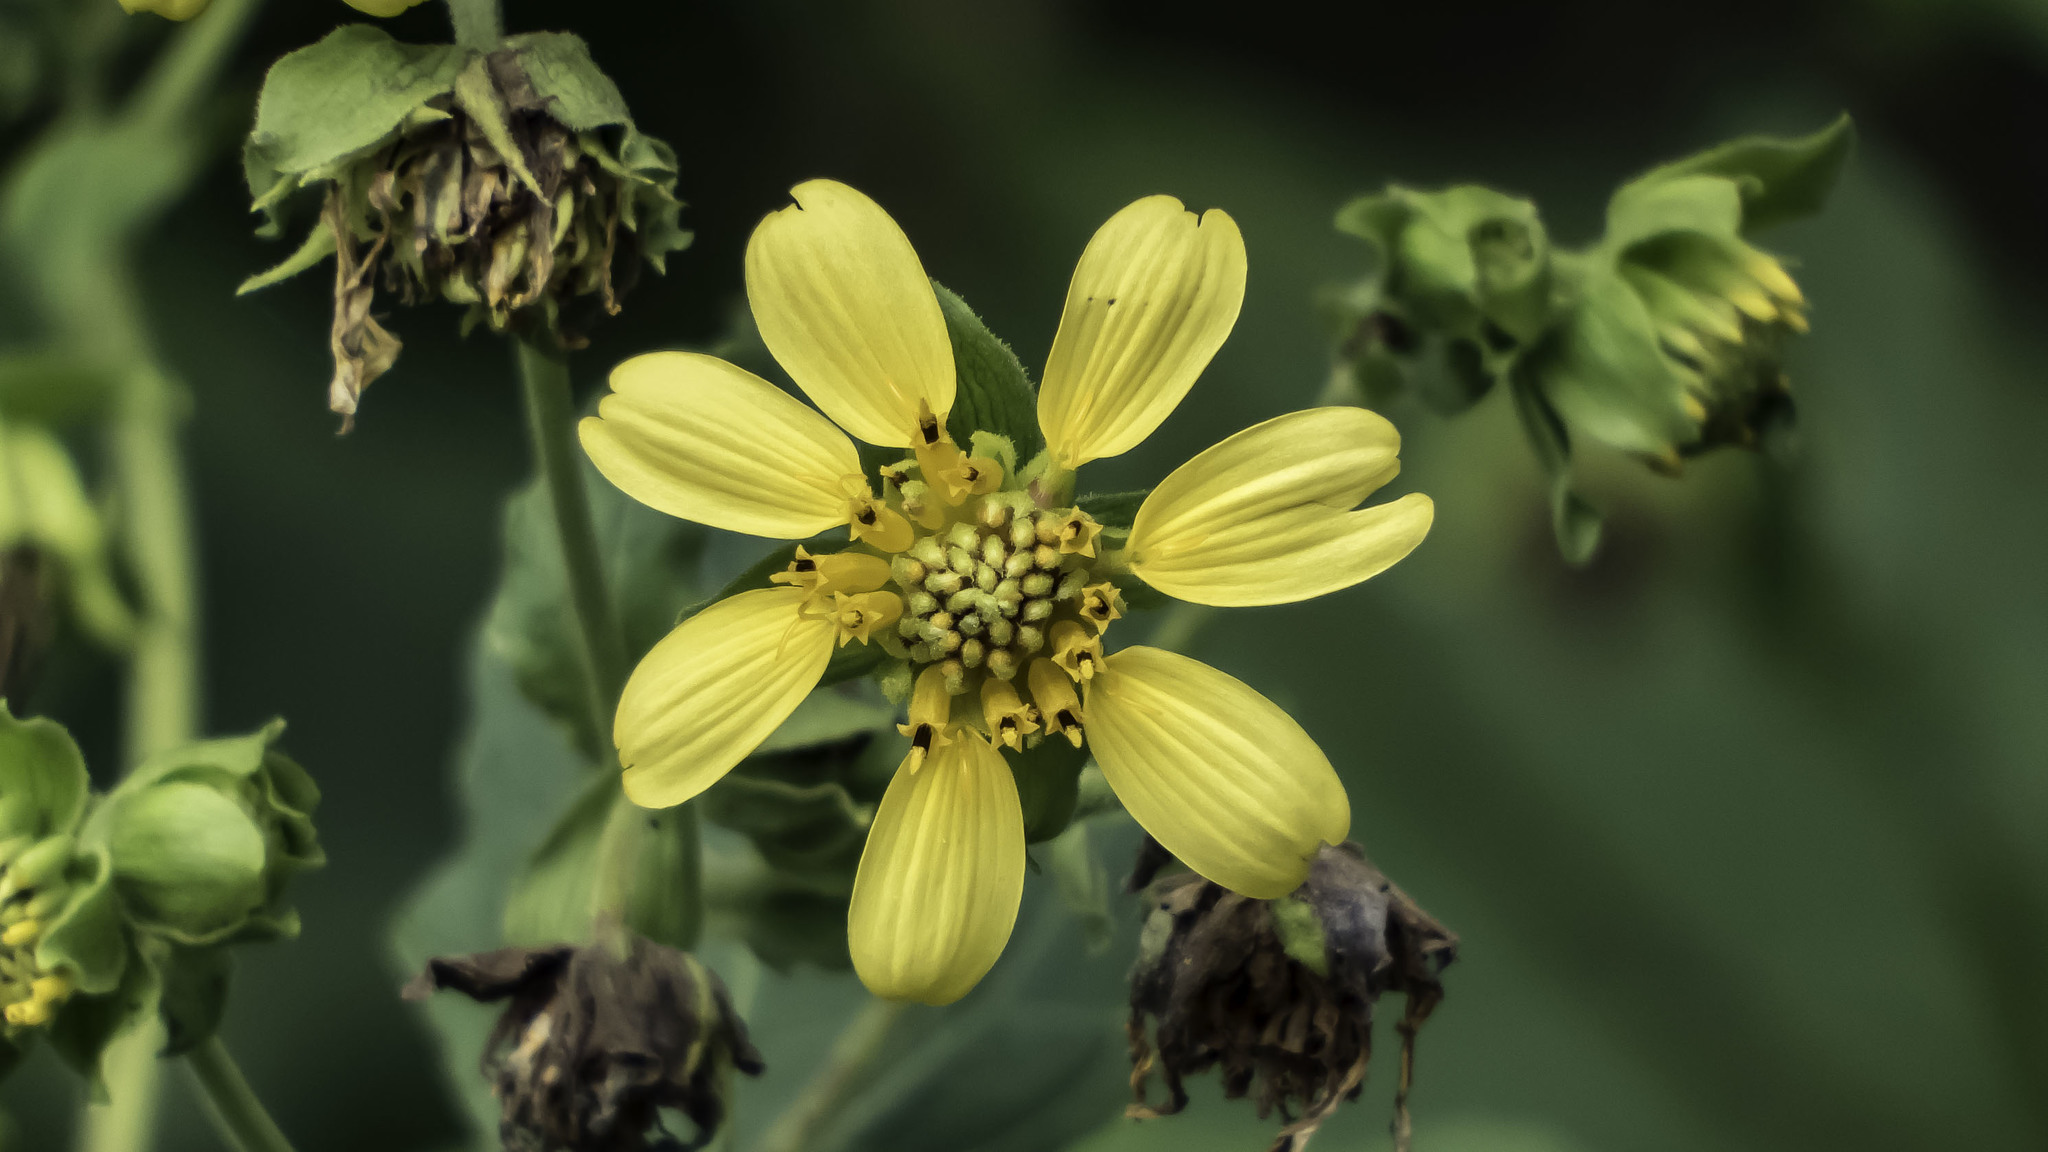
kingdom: Plantae
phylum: Tracheophyta
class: Magnoliopsida
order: Asterales
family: Asteraceae
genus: Smallanthus
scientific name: Smallanthus uvedalia
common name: Bear's-foot
